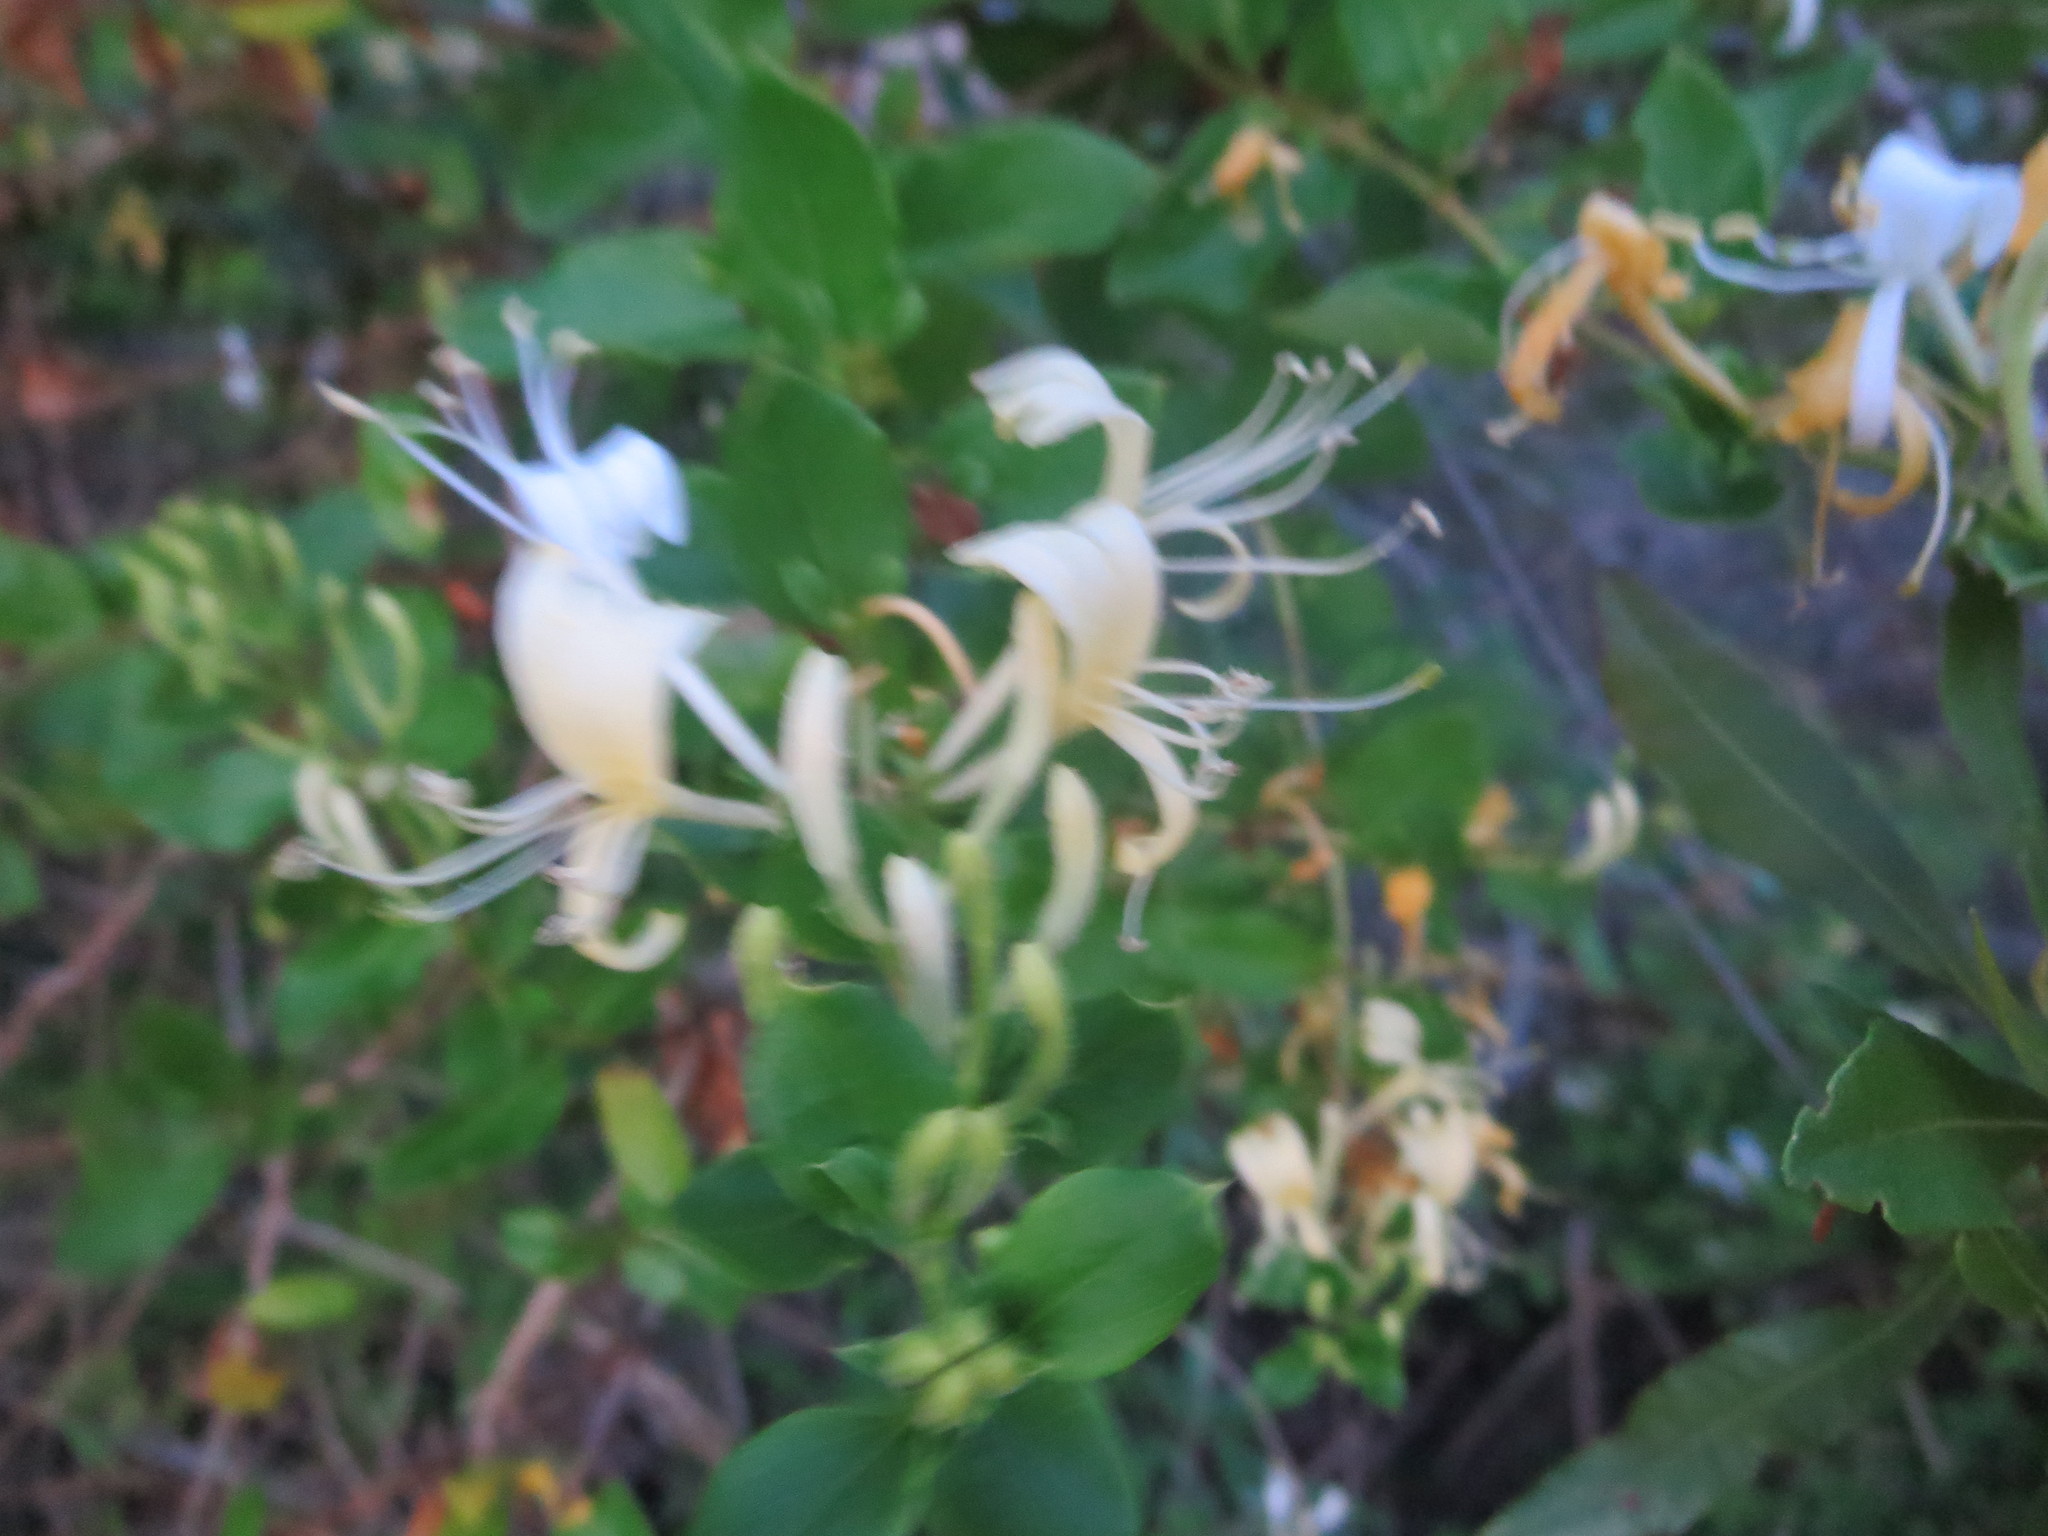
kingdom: Plantae
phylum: Tracheophyta
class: Magnoliopsida
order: Dipsacales
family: Caprifoliaceae
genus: Lonicera
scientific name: Lonicera japonica
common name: Japanese honeysuckle
